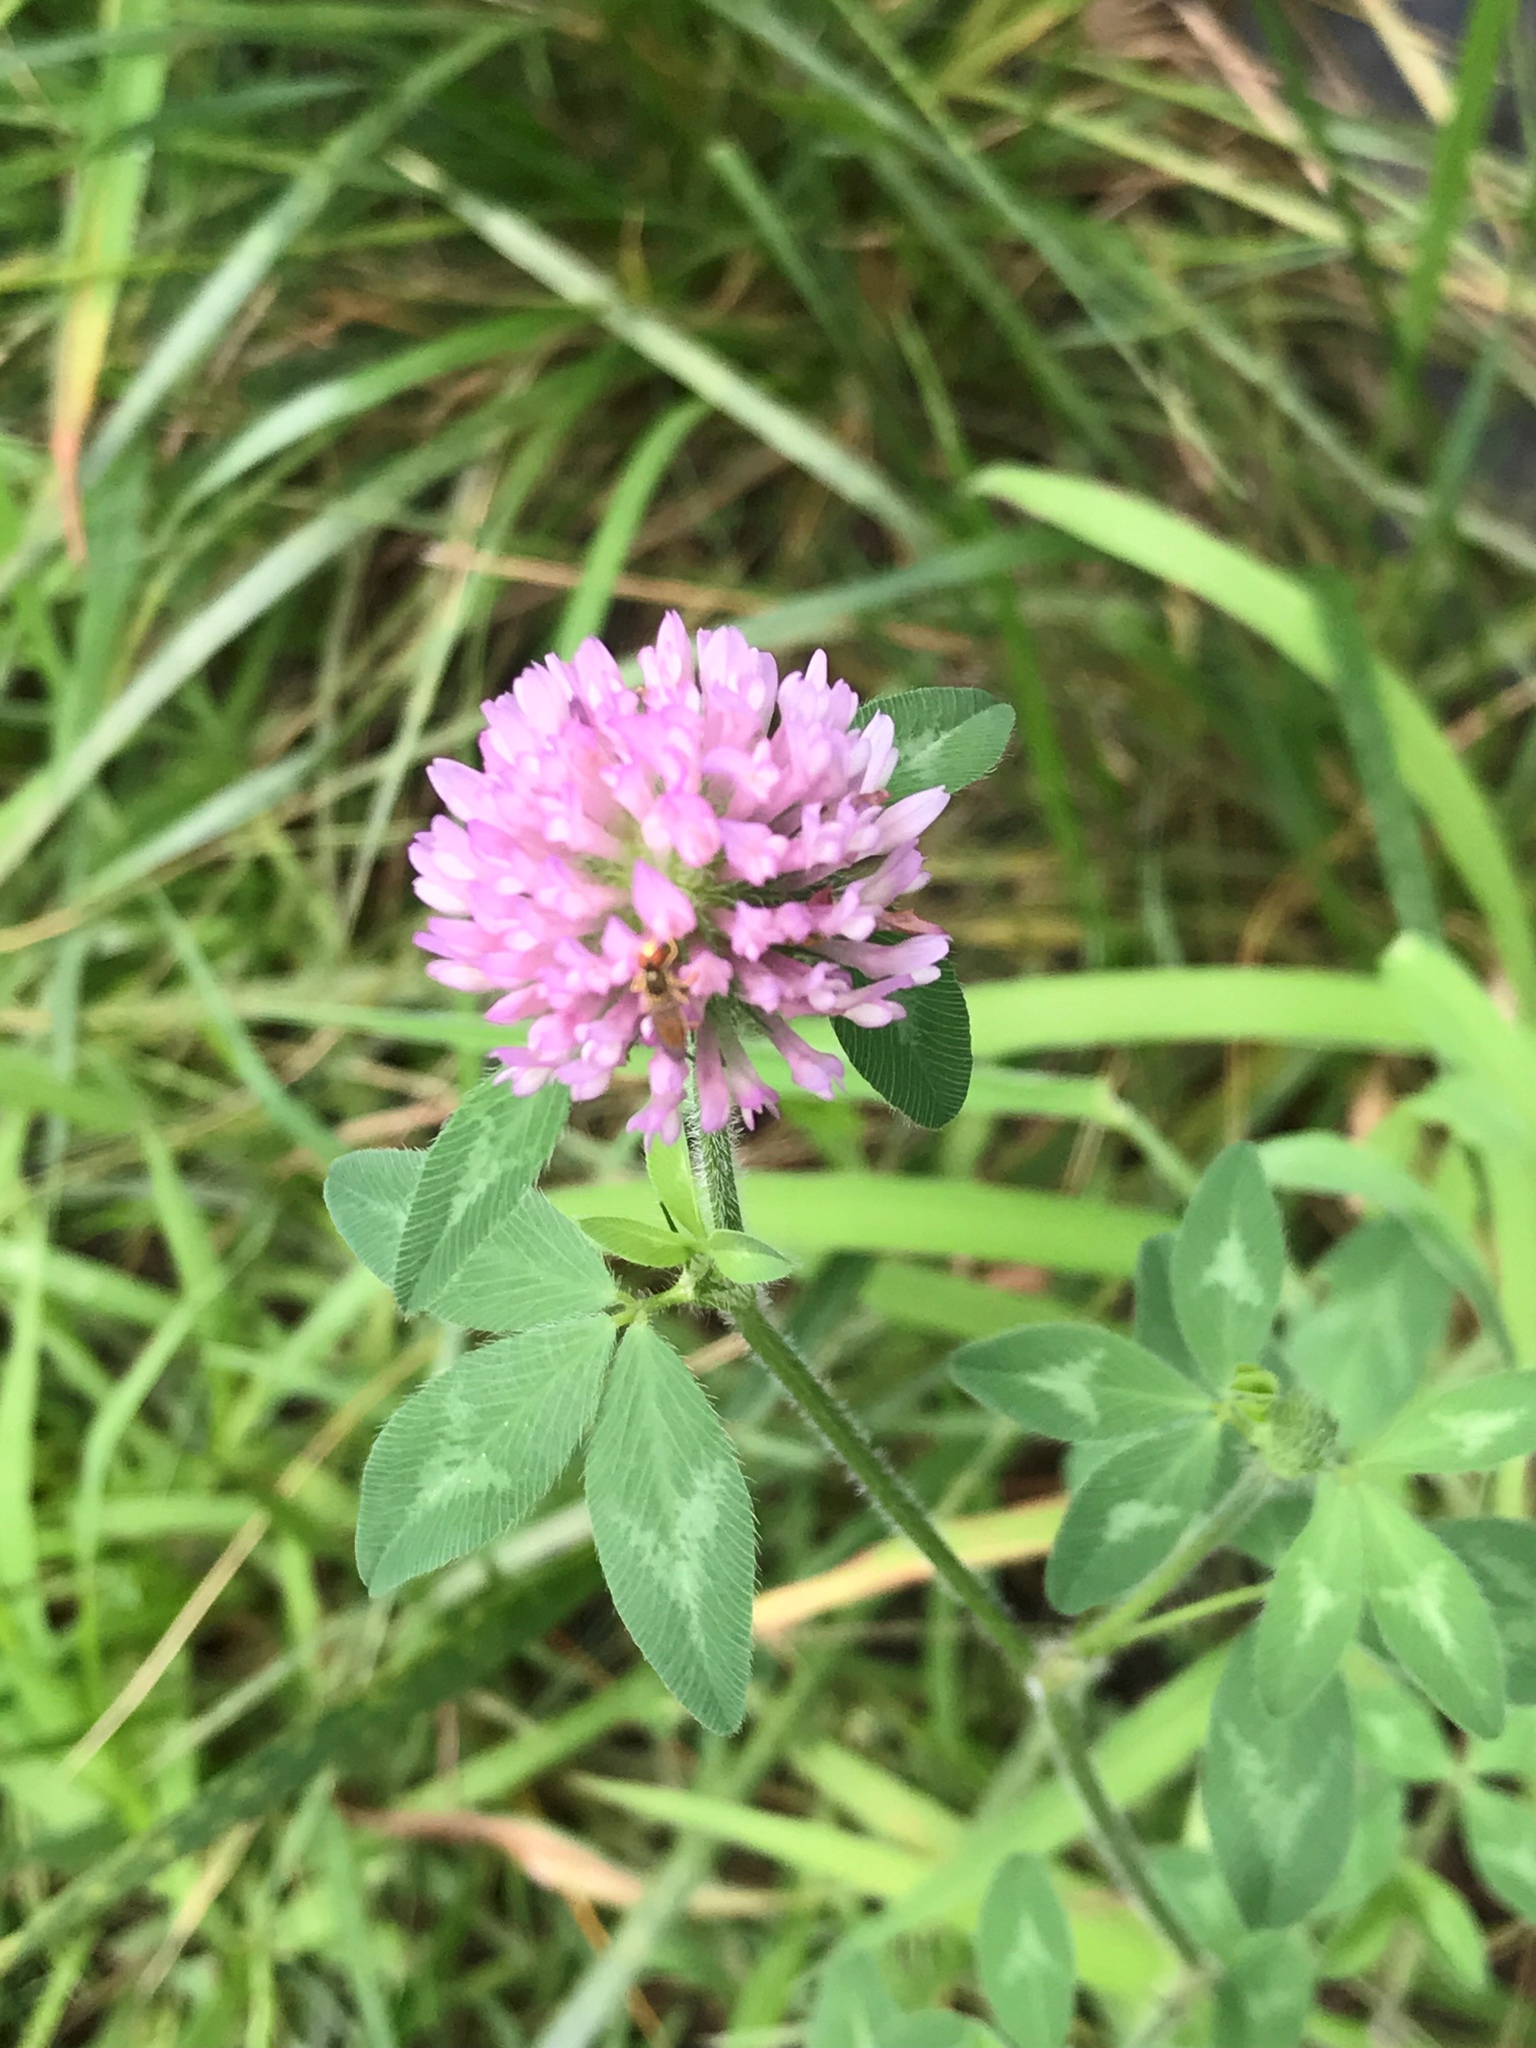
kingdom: Plantae
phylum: Tracheophyta
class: Magnoliopsida
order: Fabales
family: Fabaceae
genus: Trifolium
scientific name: Trifolium pratense
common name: Red clover
